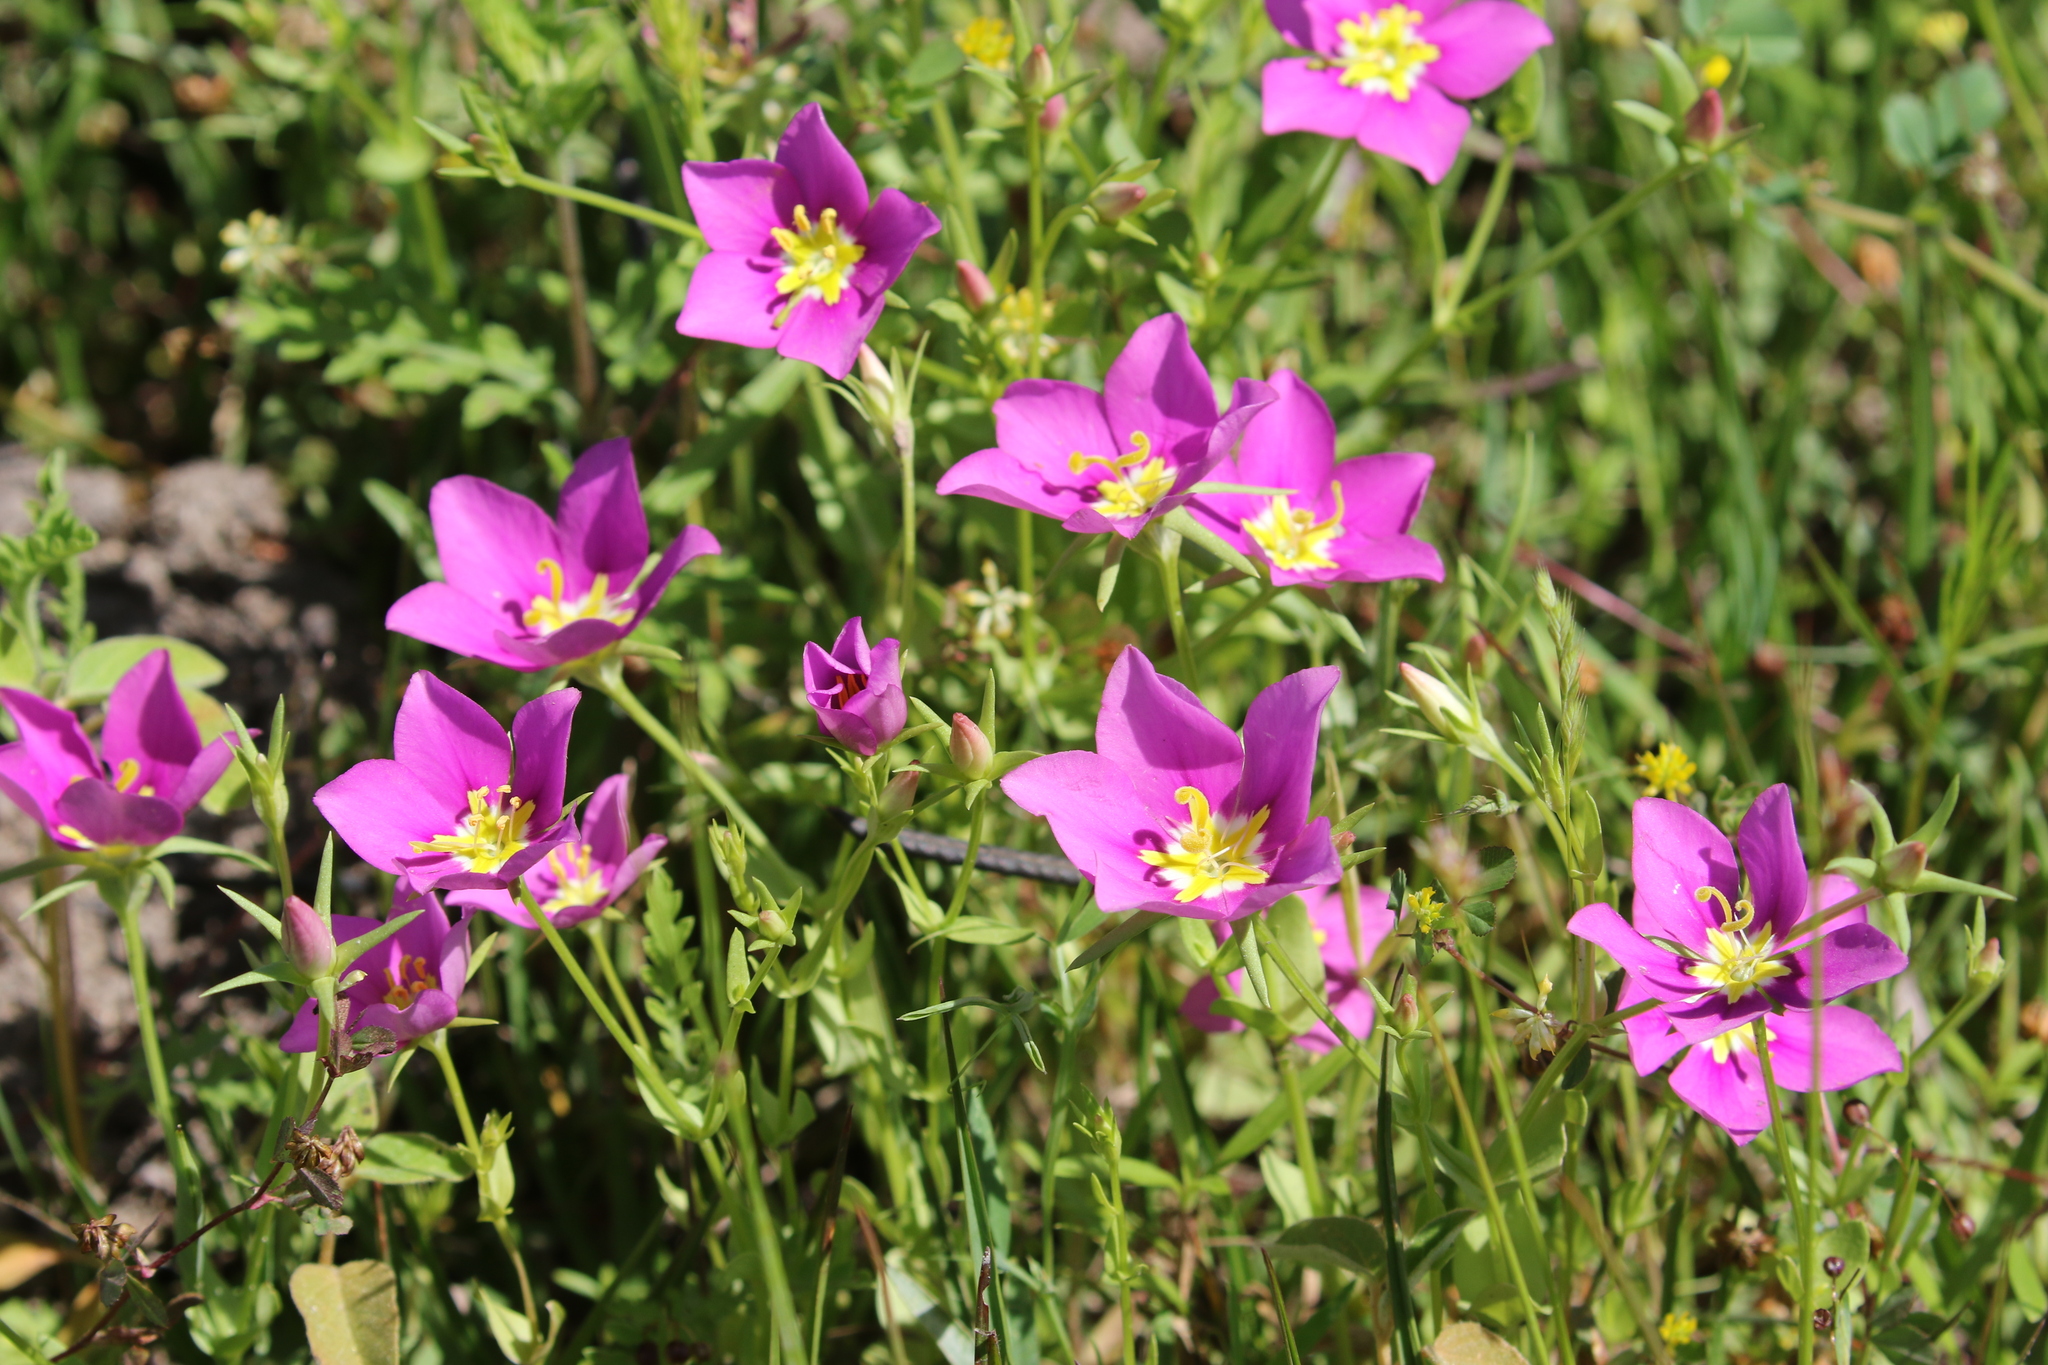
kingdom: Plantae
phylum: Tracheophyta
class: Magnoliopsida
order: Gentianales
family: Gentianaceae
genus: Sabatia
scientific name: Sabatia campestris
